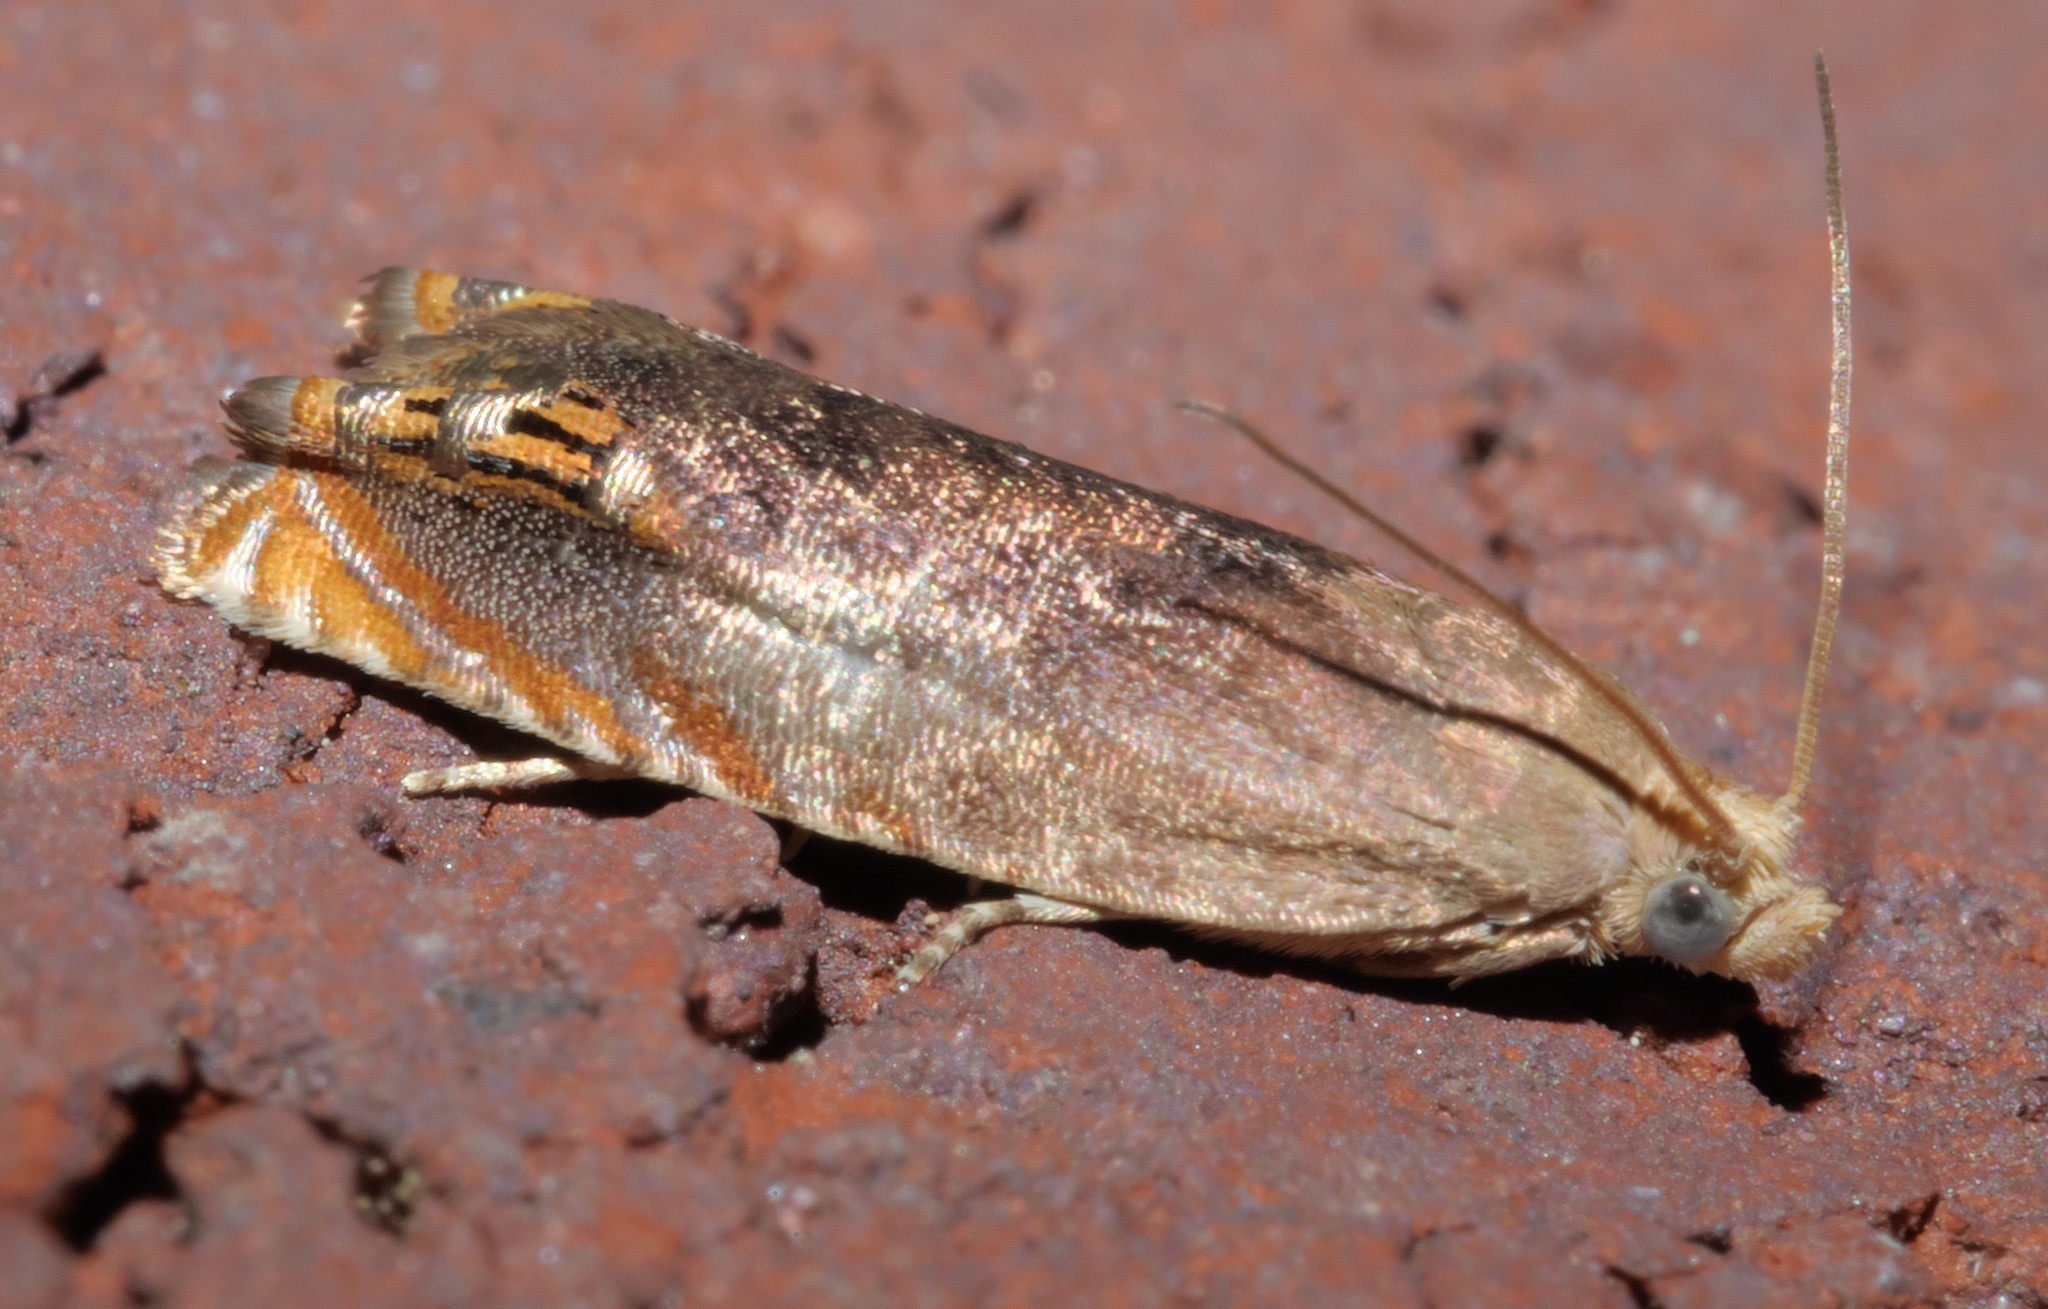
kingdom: Animalia
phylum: Arthropoda
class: Insecta
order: Lepidoptera
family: Tortricidae
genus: Hystrichophora
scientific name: Hystrichophora taleana
